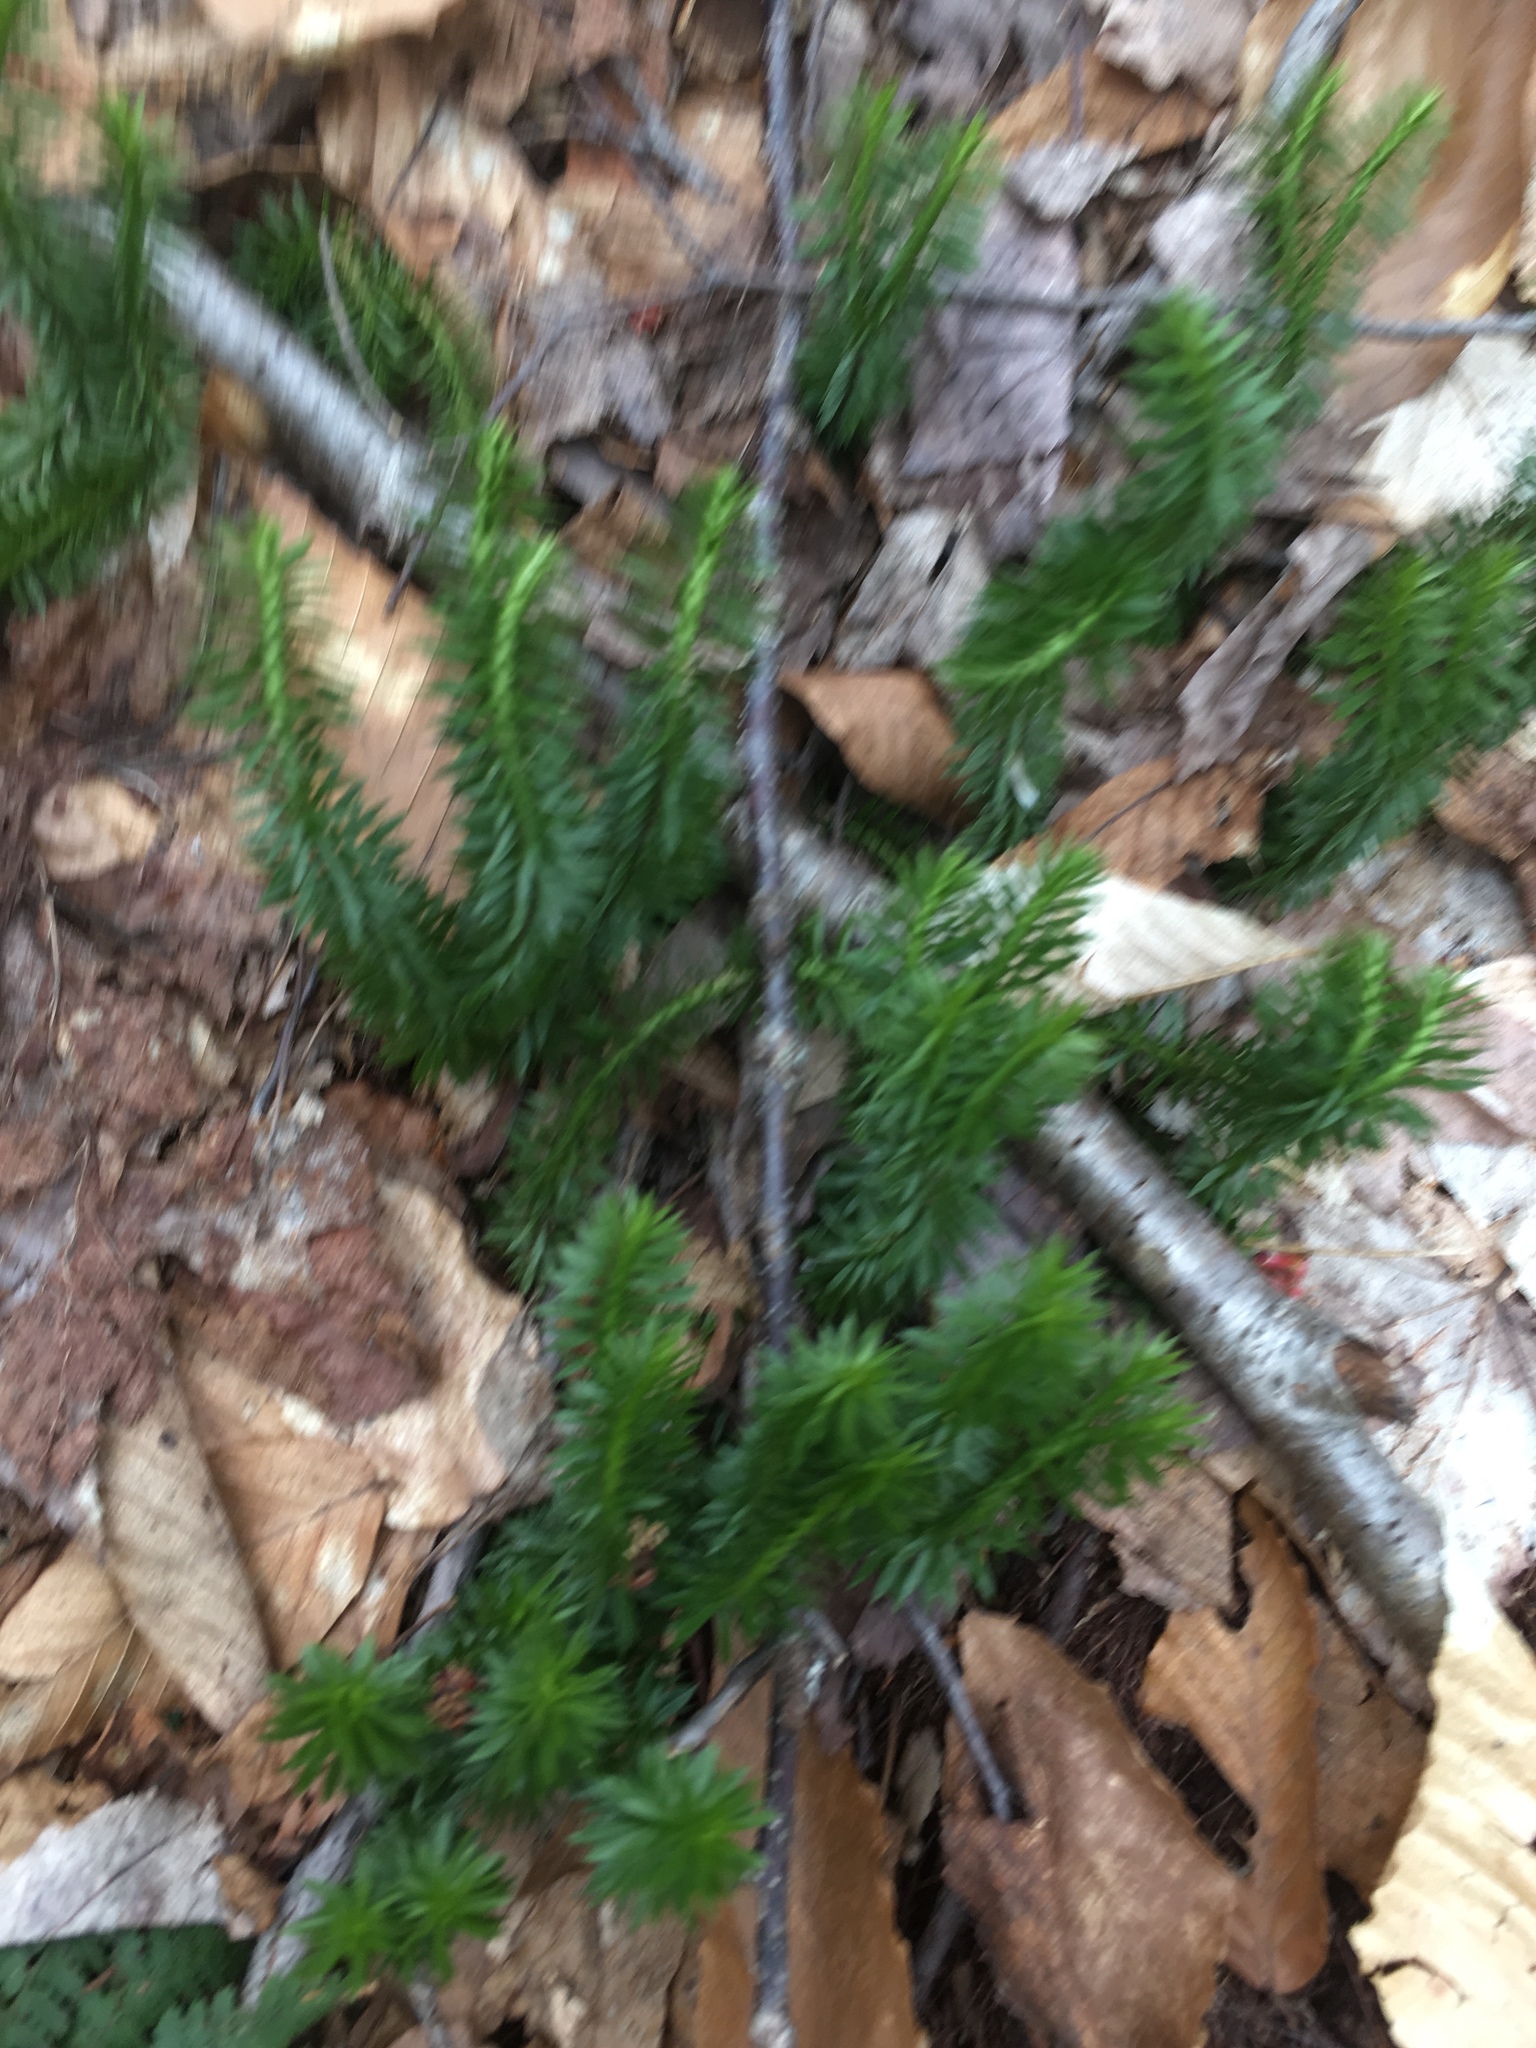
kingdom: Plantae
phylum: Tracheophyta
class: Lycopodiopsida
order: Lycopodiales
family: Lycopodiaceae
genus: Huperzia
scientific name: Huperzia lucidula
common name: Shining clubmoss
